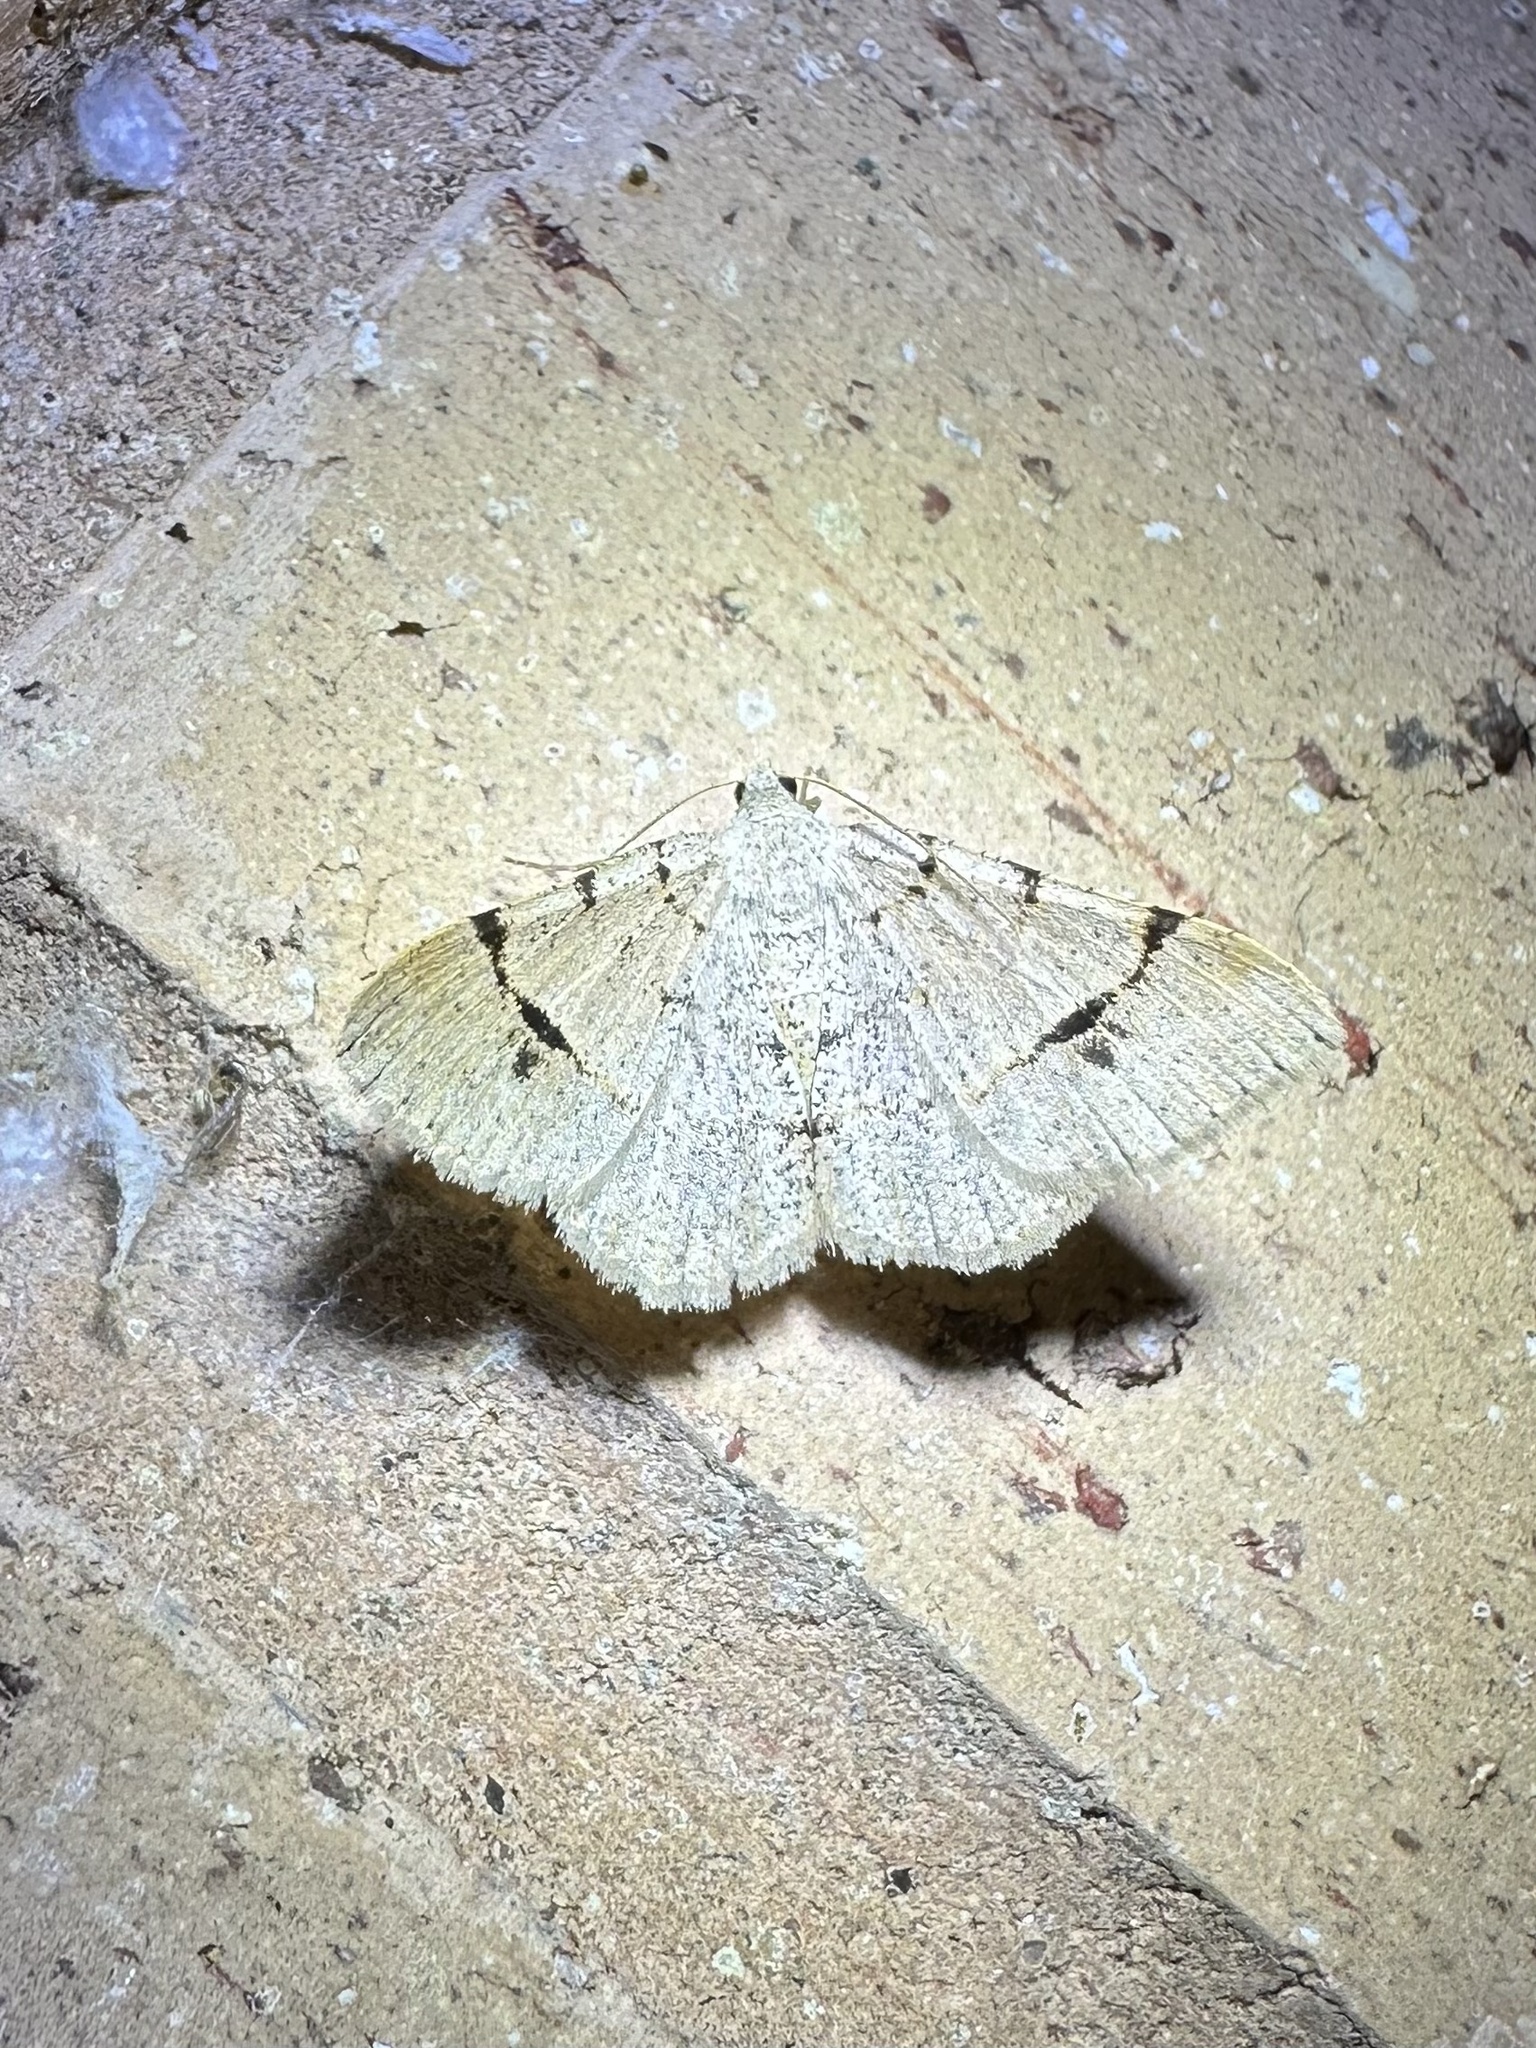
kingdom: Animalia
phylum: Arthropoda
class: Insecta
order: Lepidoptera
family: Geometridae
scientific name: Geometridae
